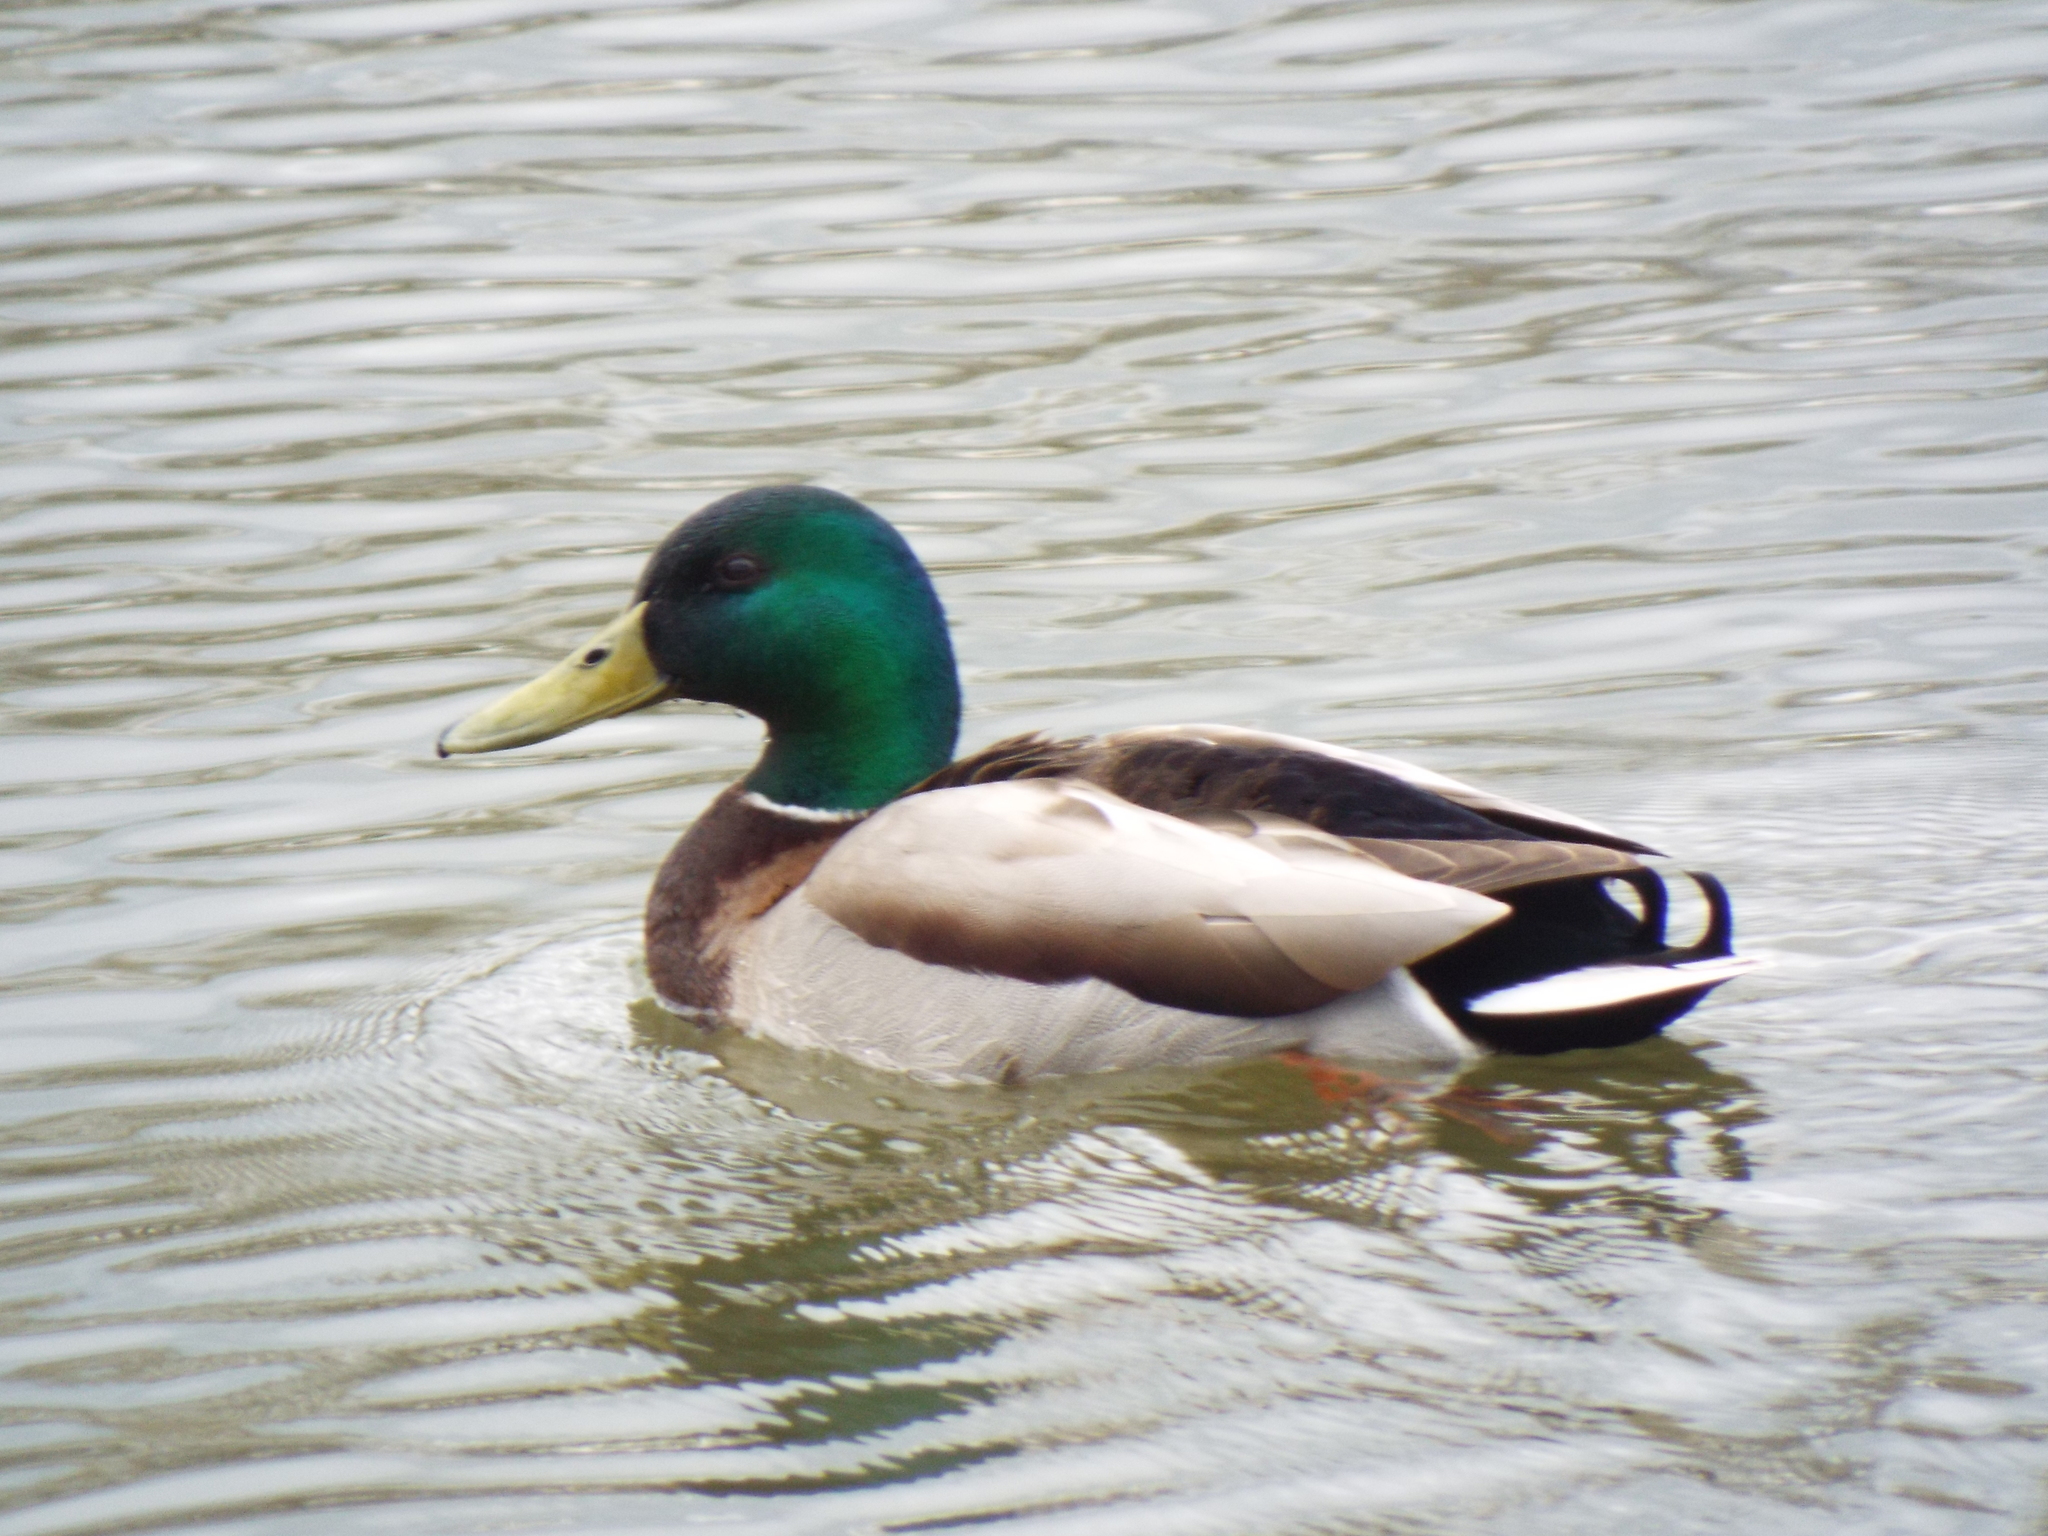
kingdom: Animalia
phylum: Chordata
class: Aves
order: Anseriformes
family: Anatidae
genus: Anas
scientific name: Anas platyrhynchos
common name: Mallard
